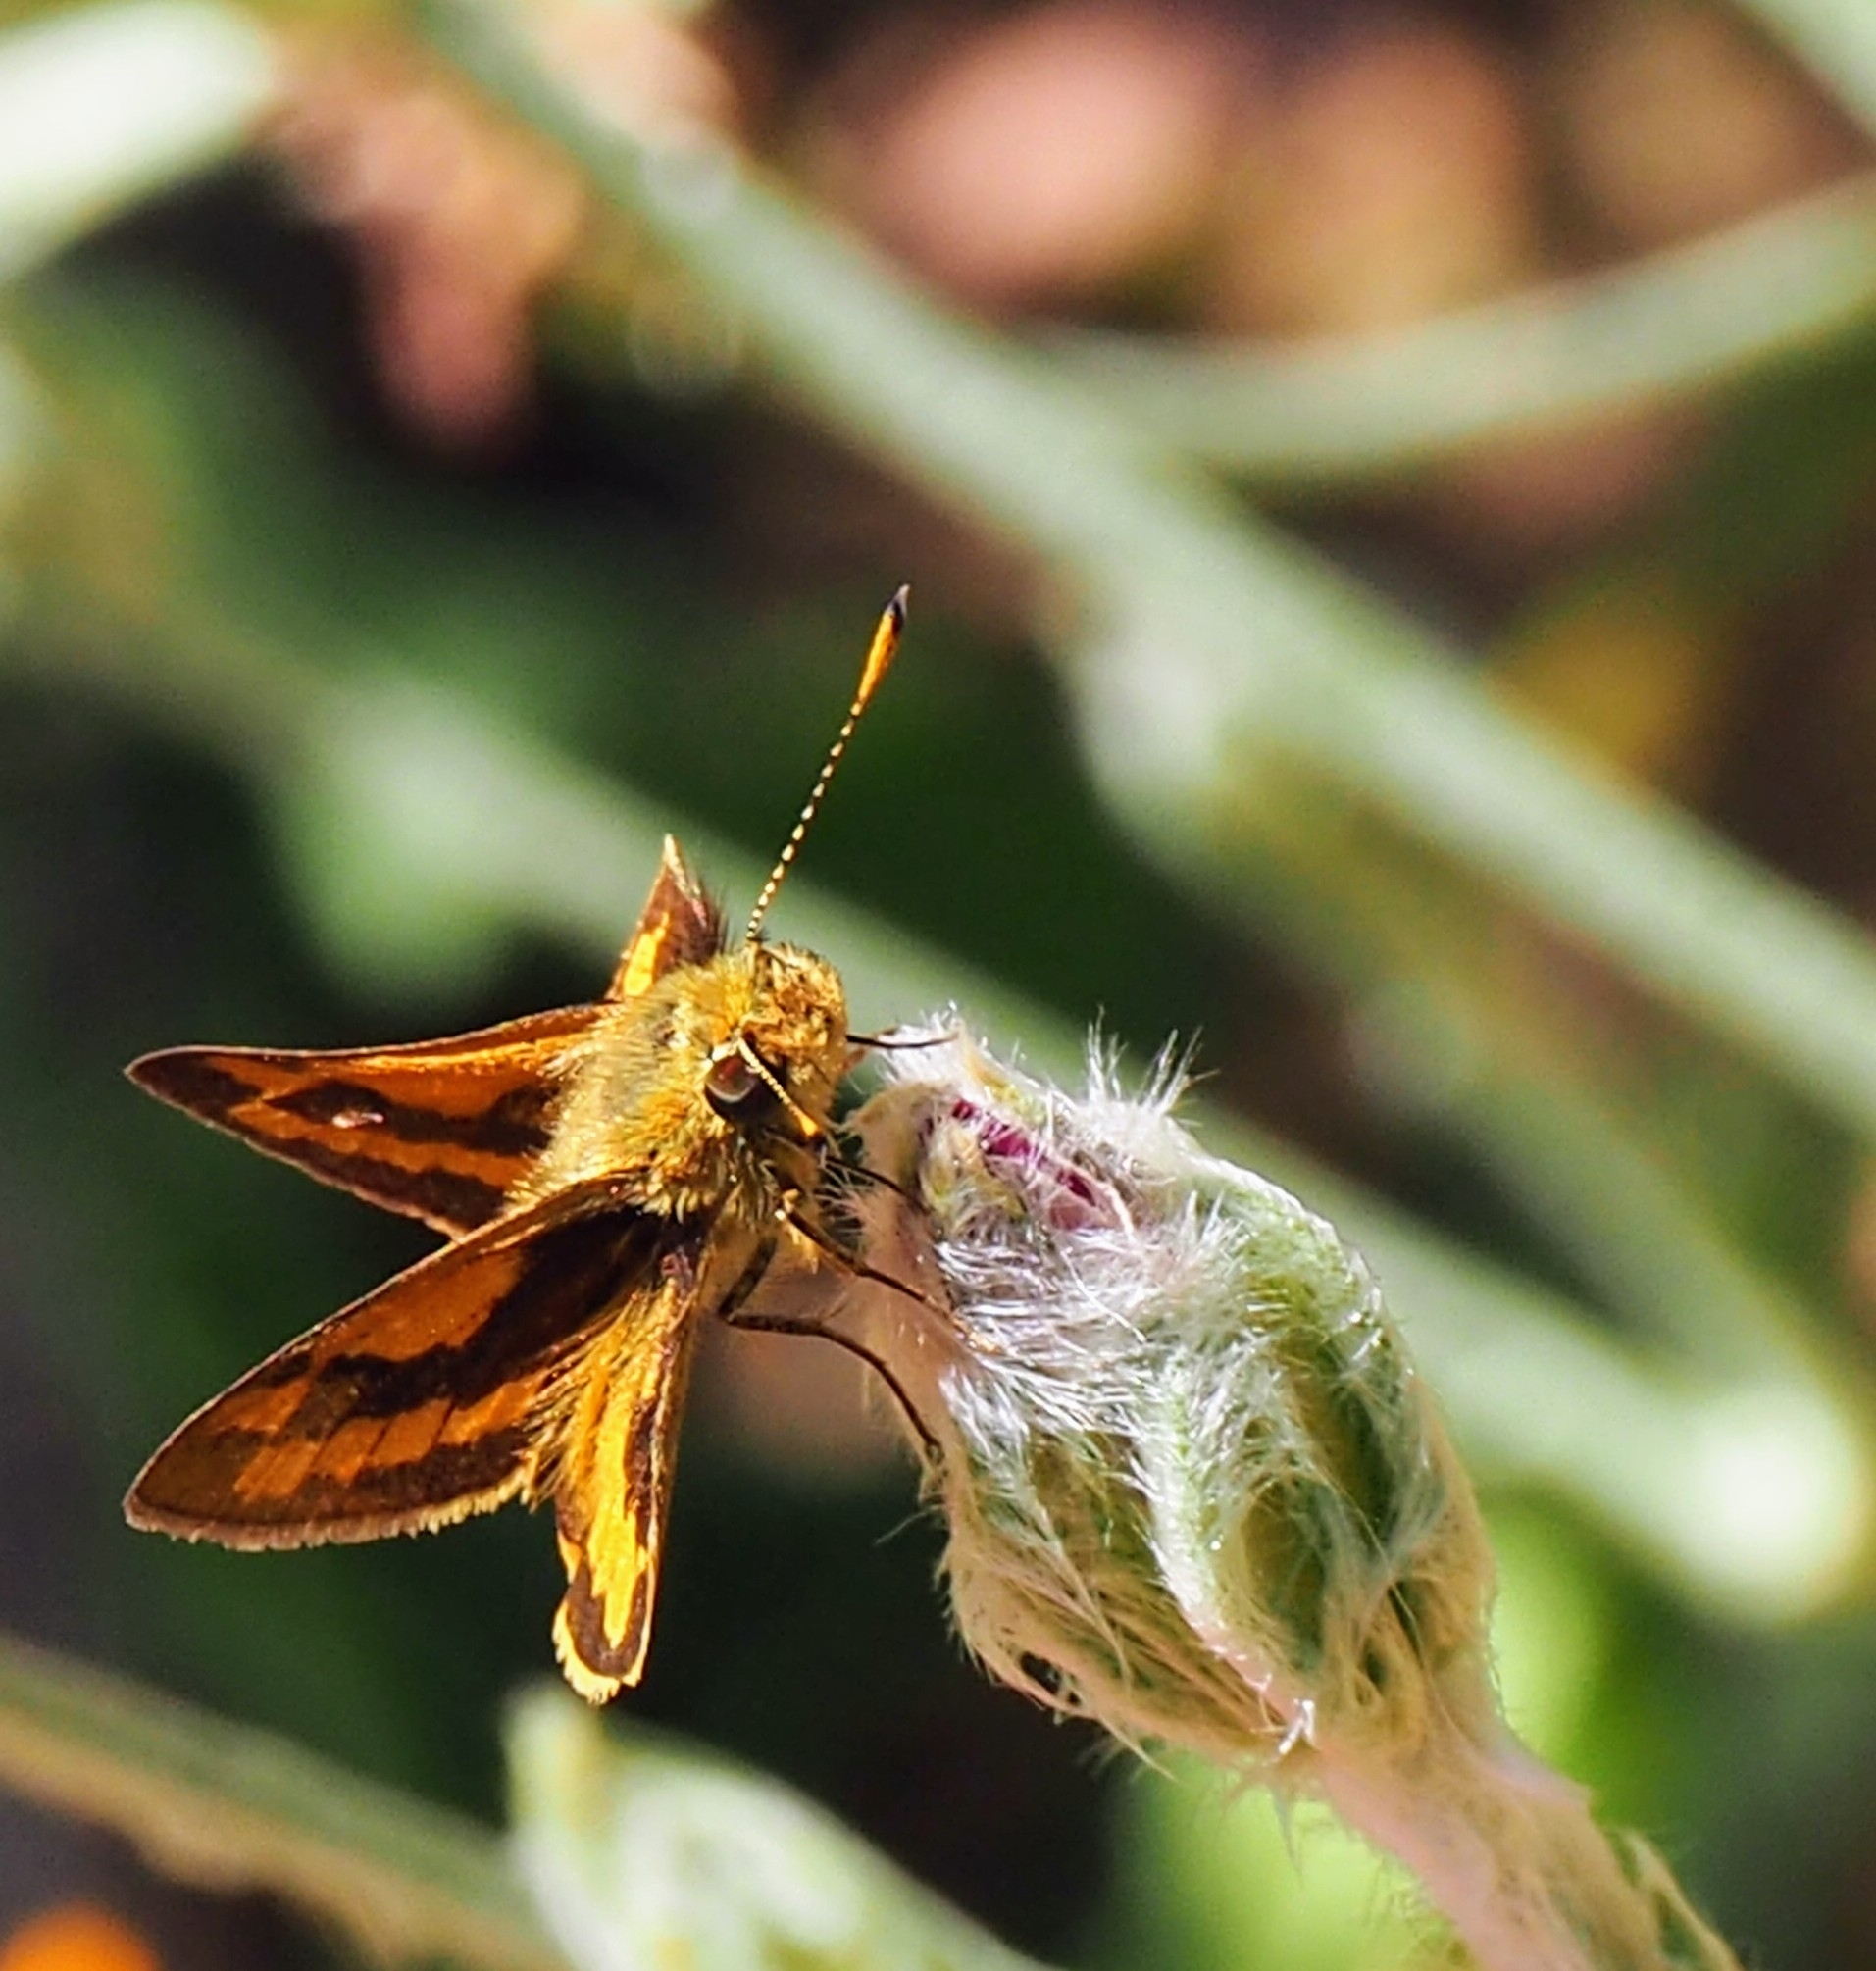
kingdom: Animalia
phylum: Arthropoda
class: Insecta
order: Lepidoptera
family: Hesperiidae
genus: Ocybadistes
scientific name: Ocybadistes walkeri
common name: Yellow-banded dart
